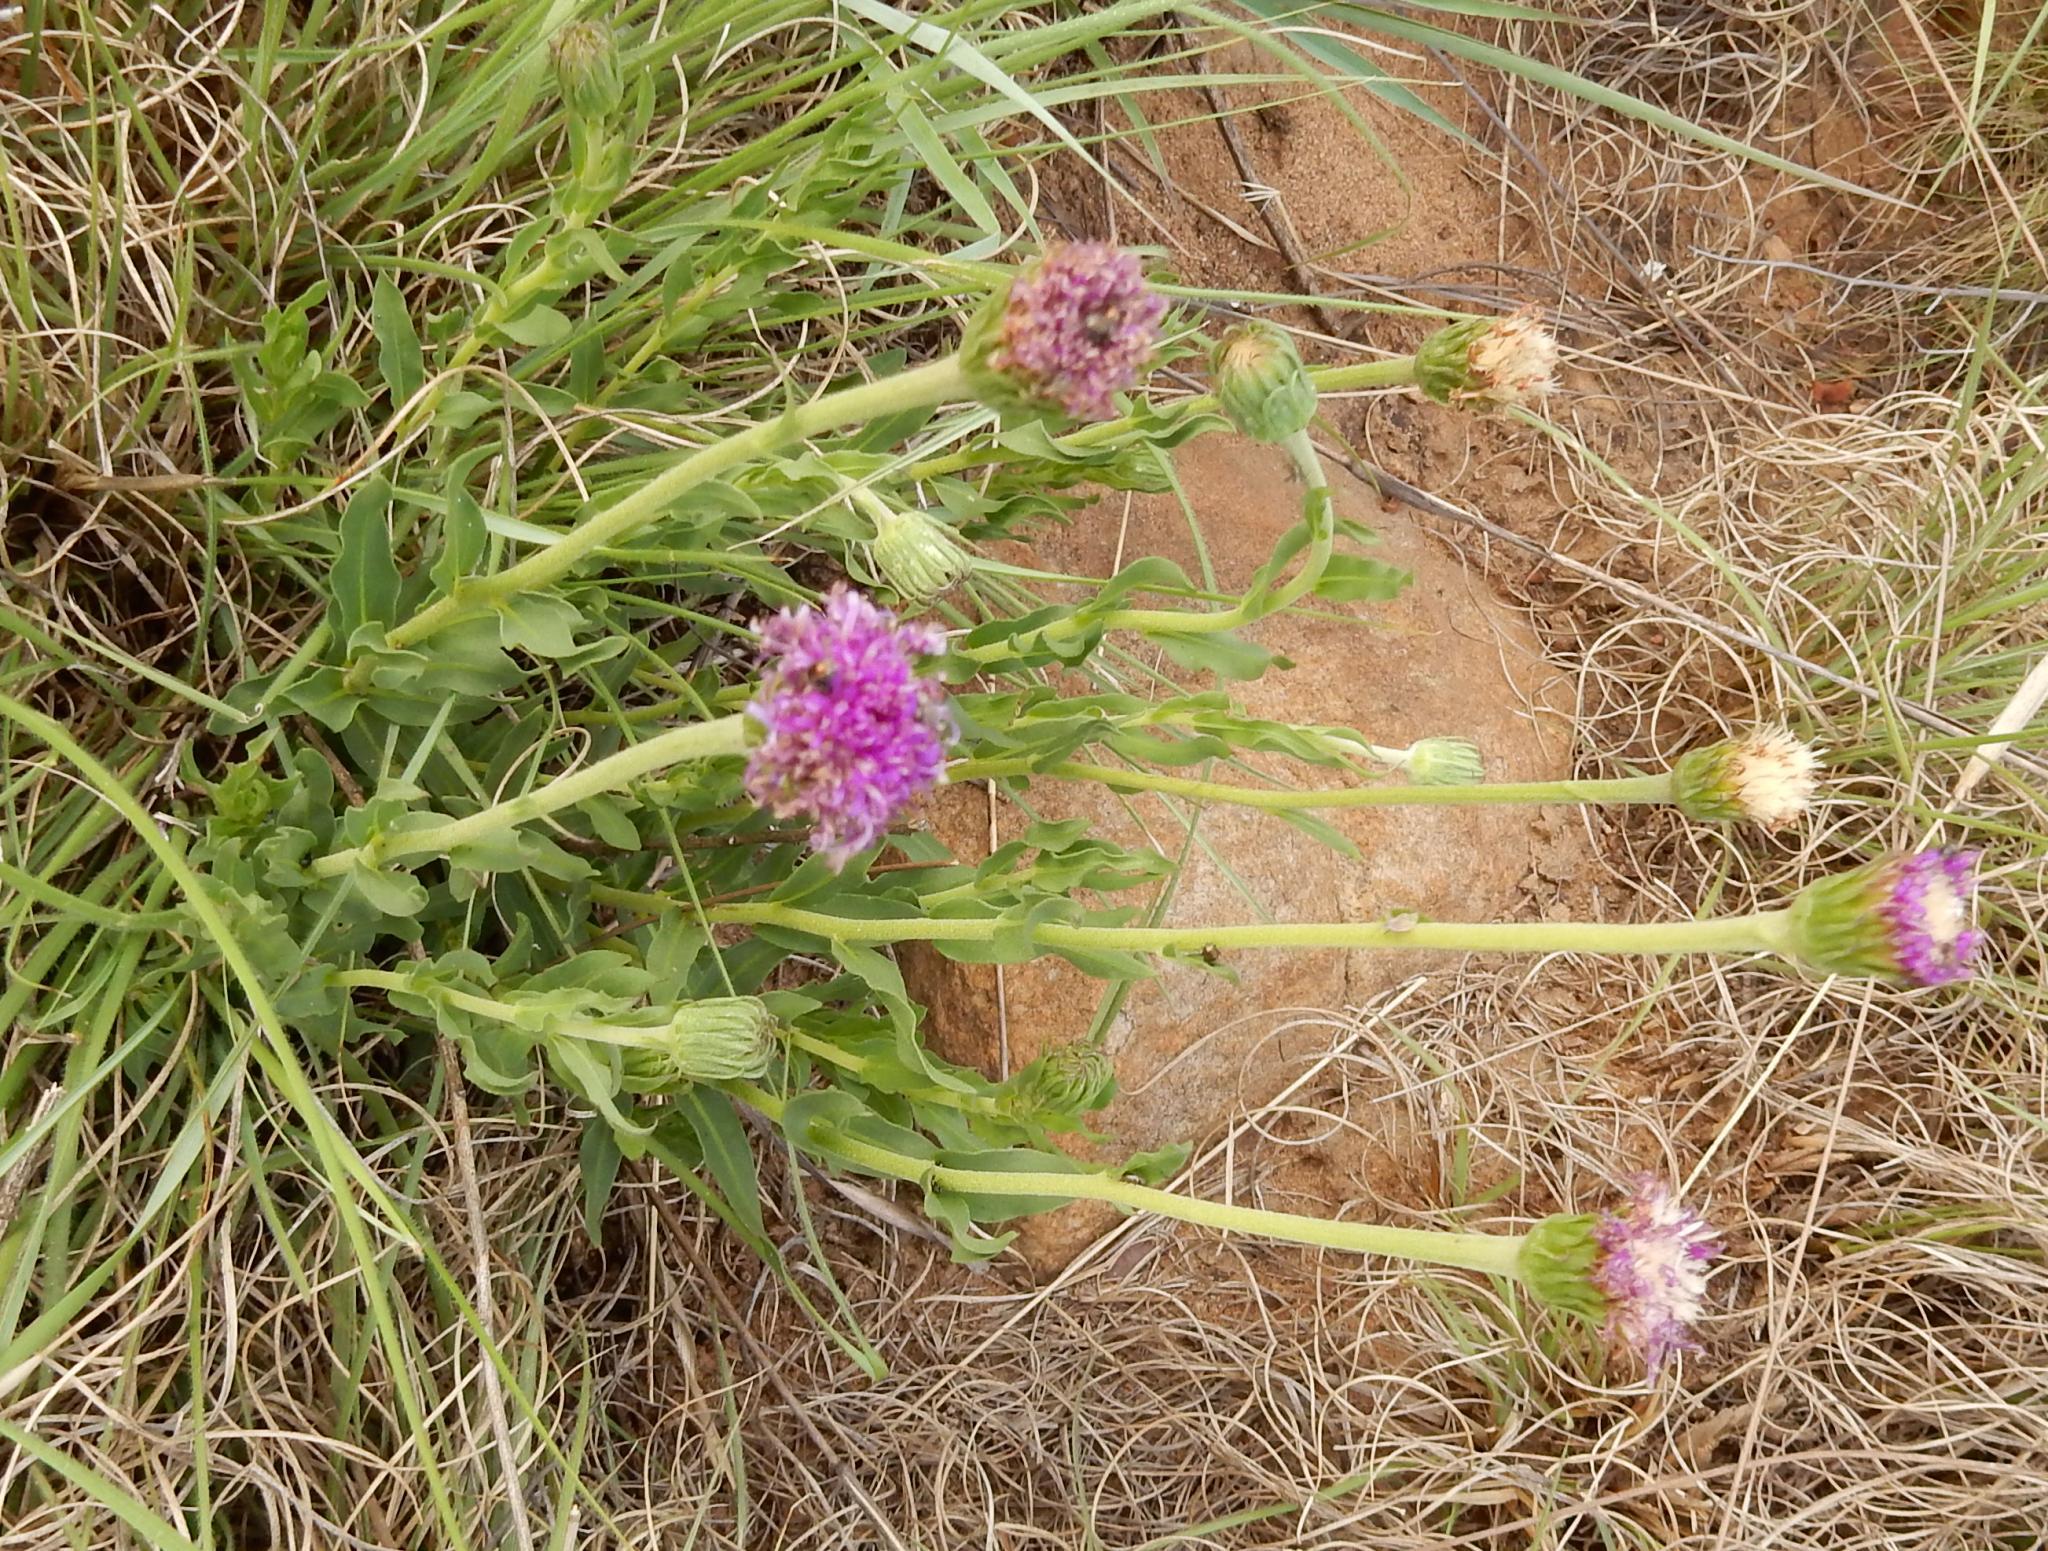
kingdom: Plantae
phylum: Tracheophyta
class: Magnoliopsida
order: Asterales
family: Asteraceae
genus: Pseudopegolettia
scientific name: Pseudopegolettia tenella
